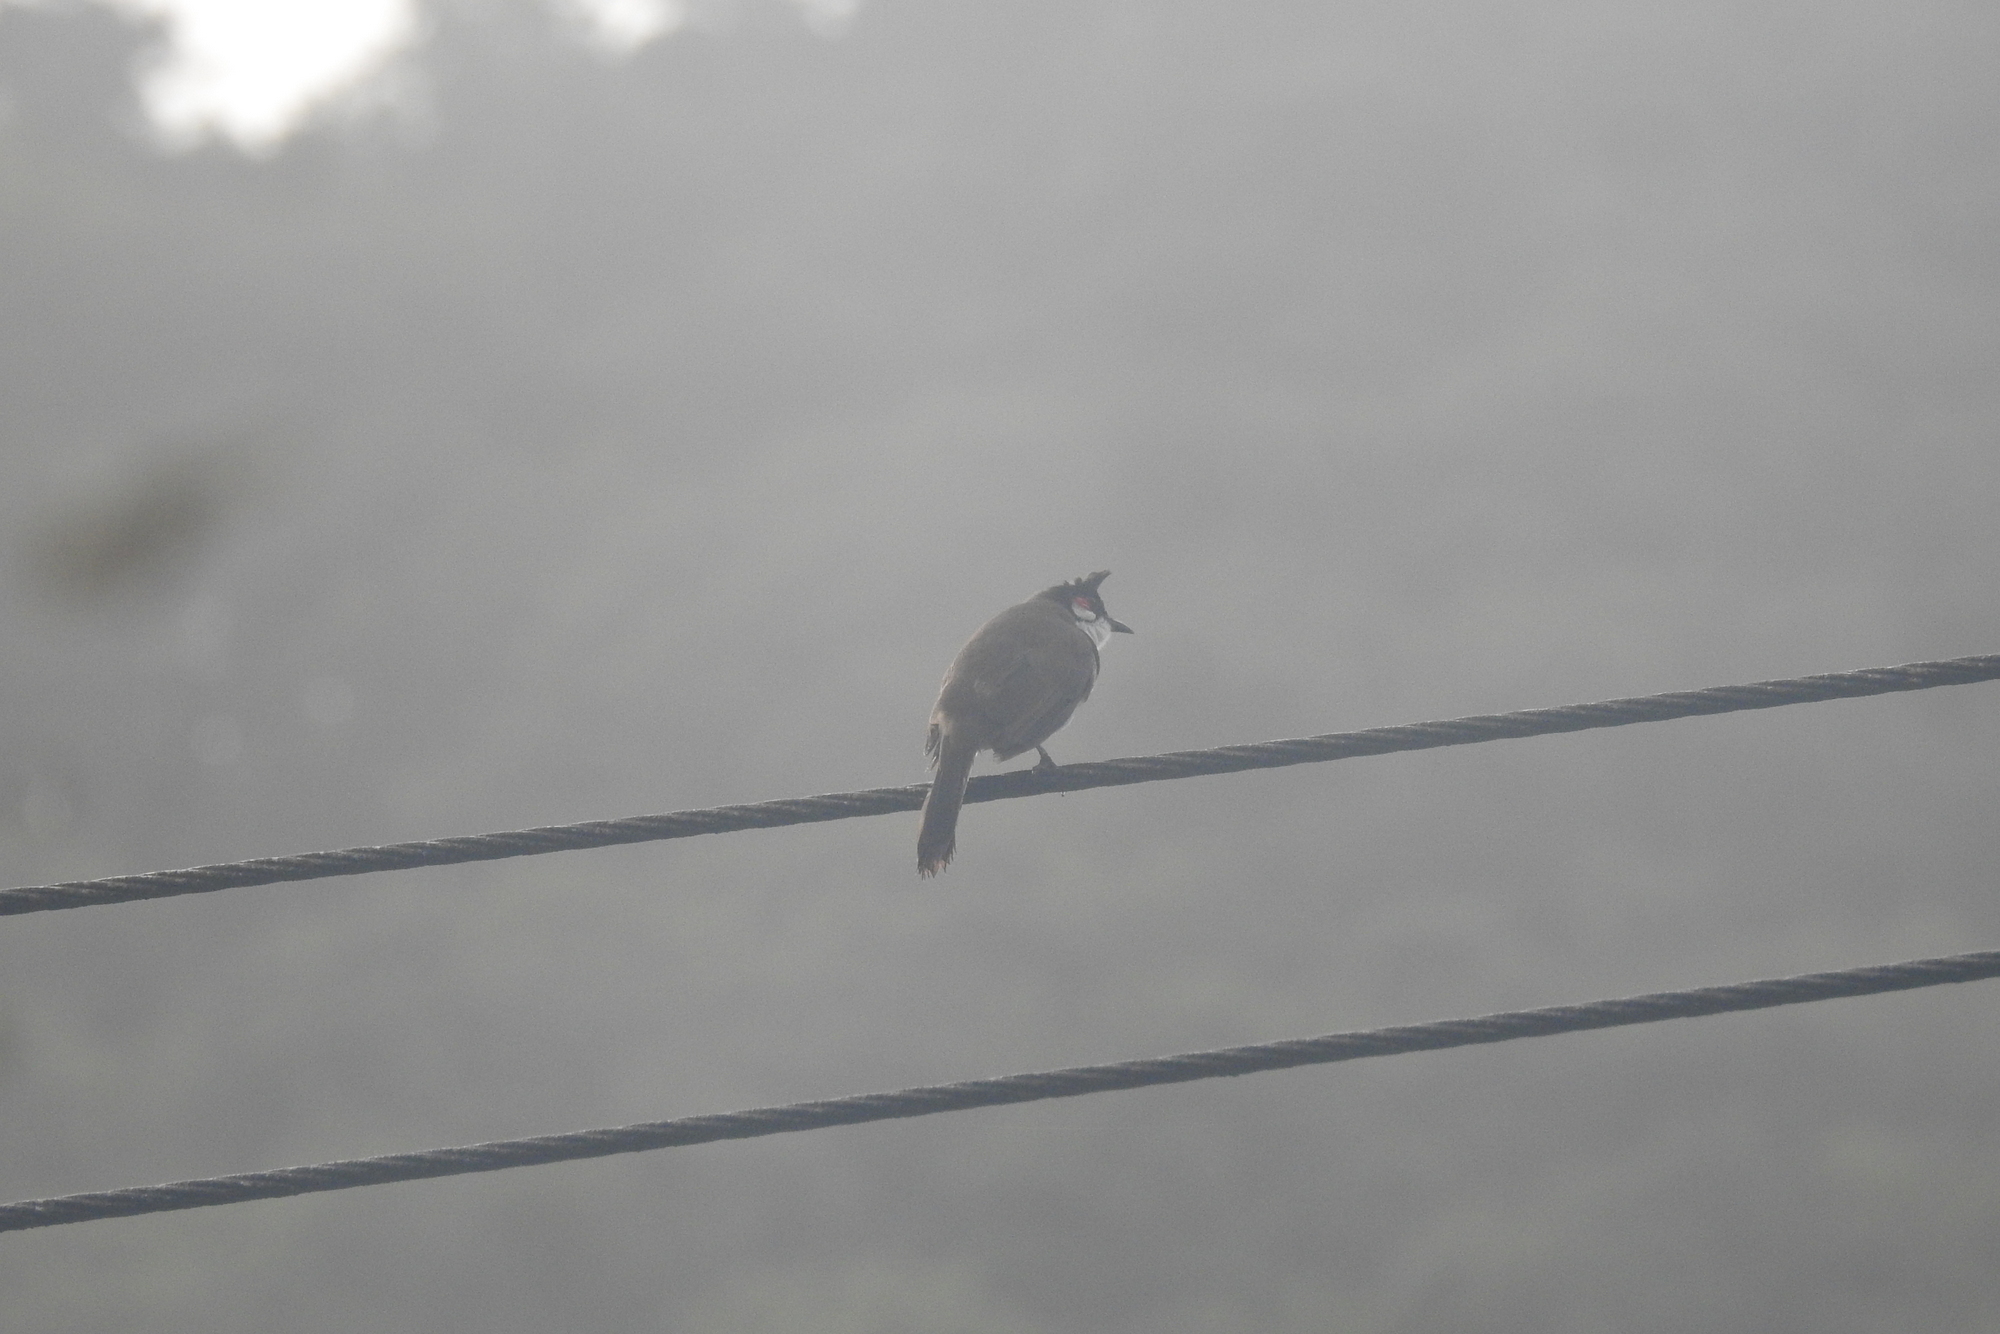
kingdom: Animalia
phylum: Chordata
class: Aves
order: Passeriformes
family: Pycnonotidae
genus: Pycnonotus
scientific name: Pycnonotus jocosus
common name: Red-whiskered bulbul
